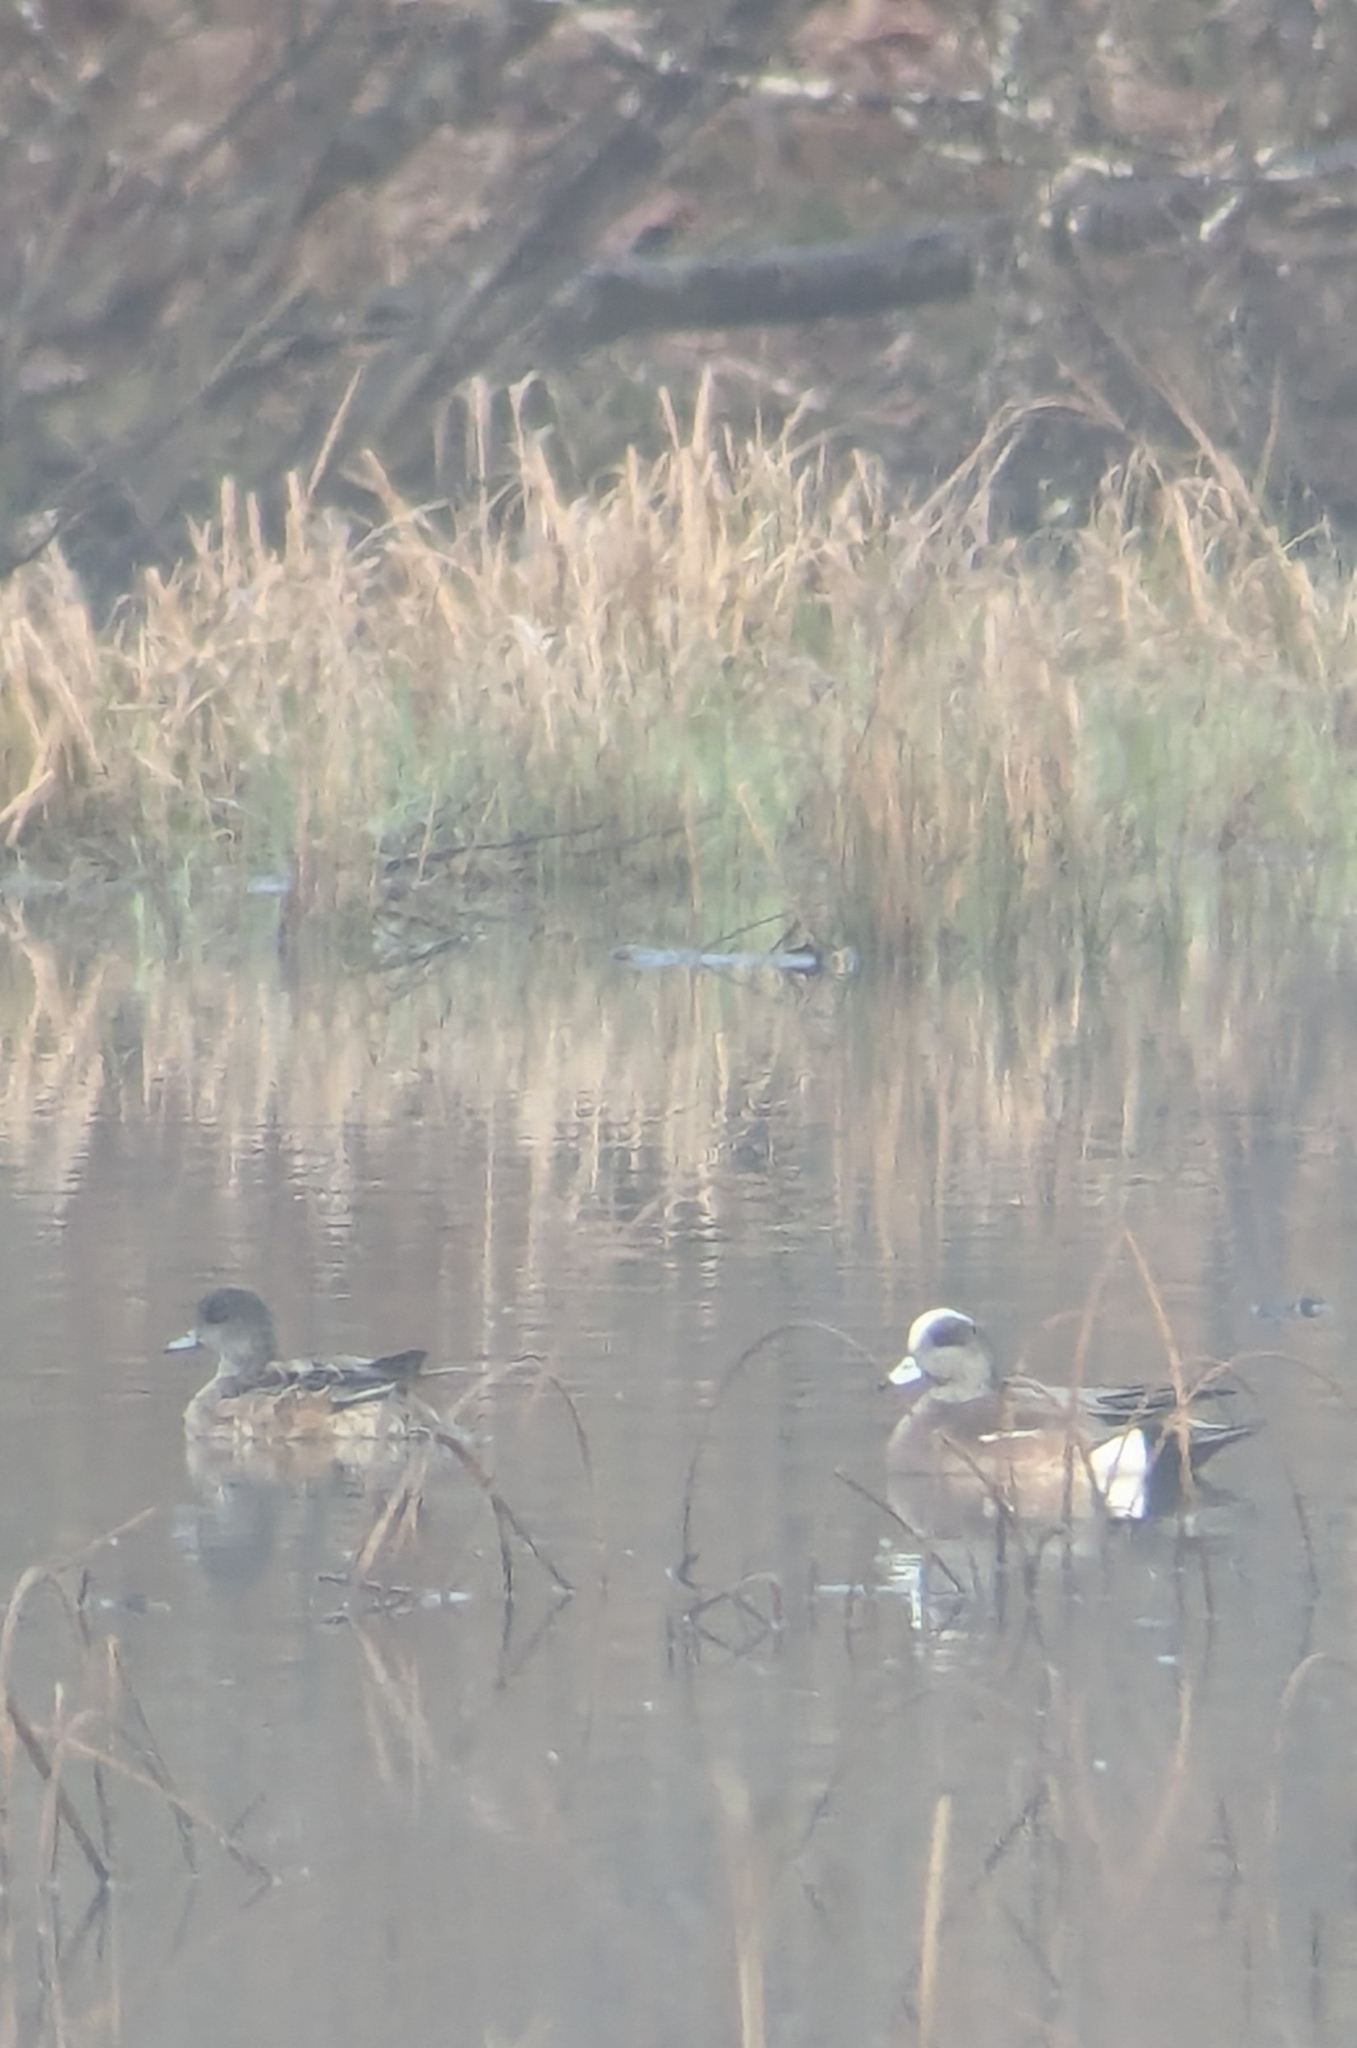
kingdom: Animalia
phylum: Chordata
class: Aves
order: Anseriformes
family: Anatidae
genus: Mareca
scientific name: Mareca americana
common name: American wigeon
